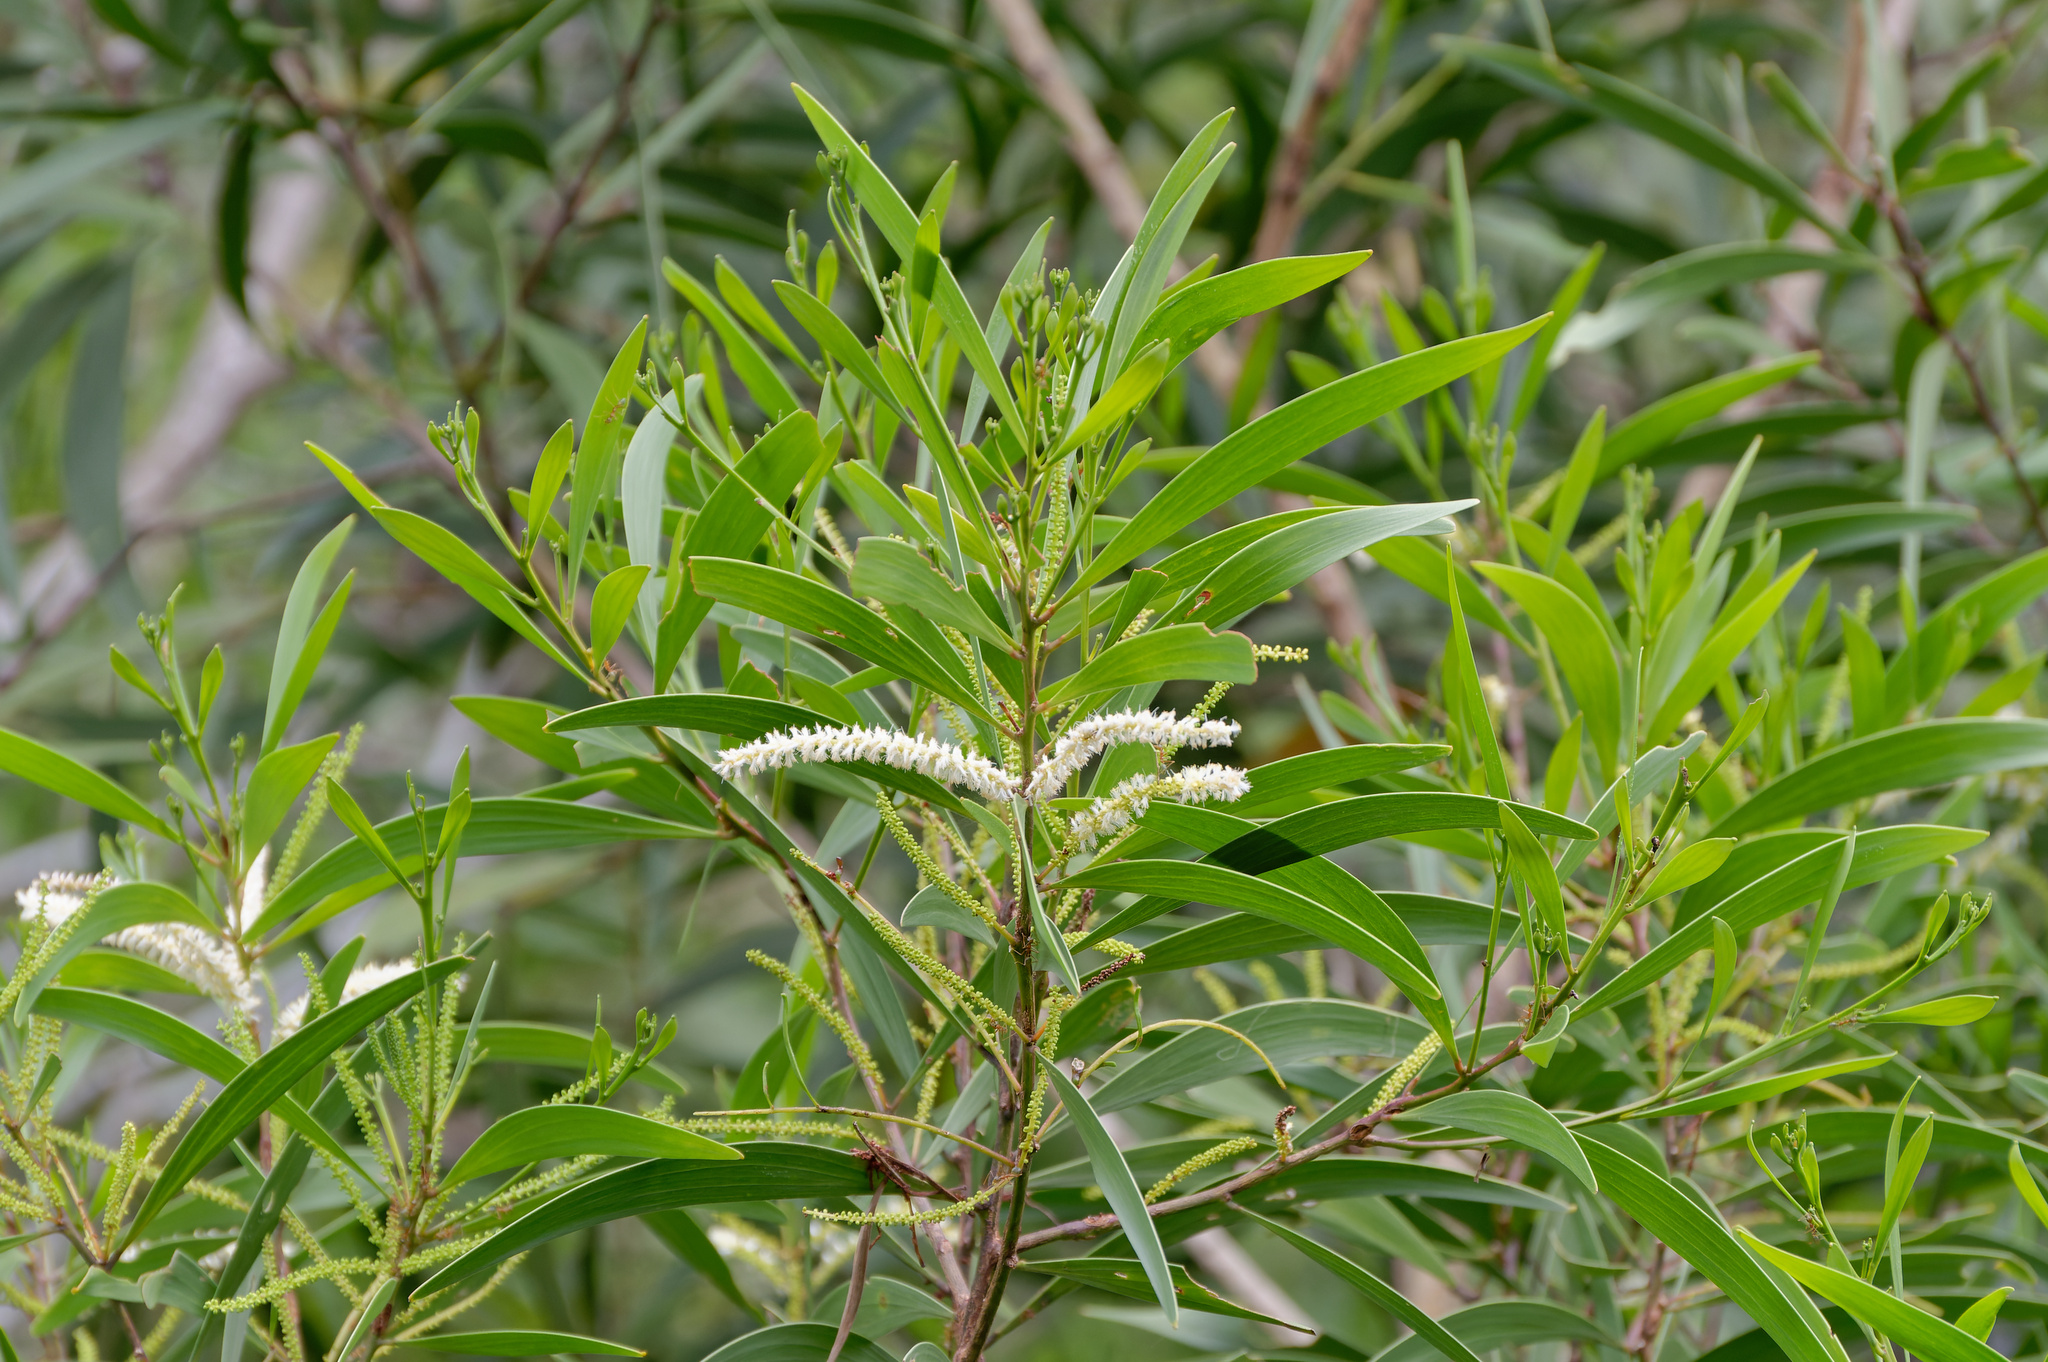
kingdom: Plantae
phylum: Tracheophyta
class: Magnoliopsida
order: Fabales
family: Fabaceae
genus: Acacia
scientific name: Acacia auriculiformis
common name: Earleaf acacia
